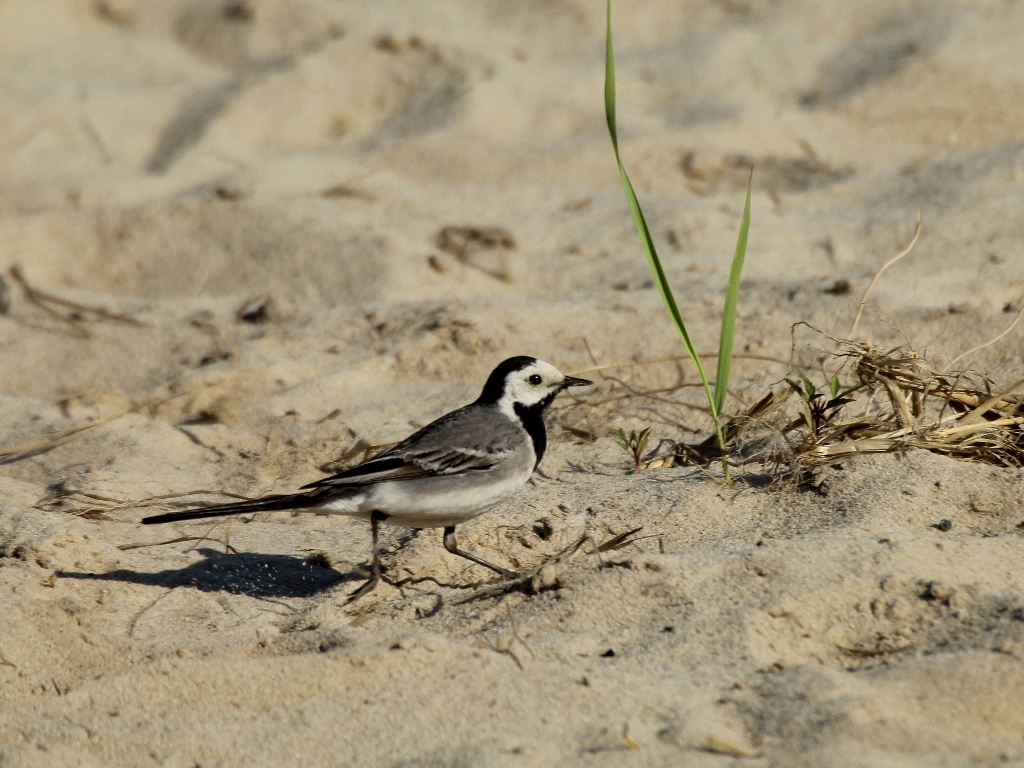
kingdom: Animalia
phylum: Chordata
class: Aves
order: Passeriformes
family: Motacillidae
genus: Motacilla
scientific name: Motacilla alba
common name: White wagtail
